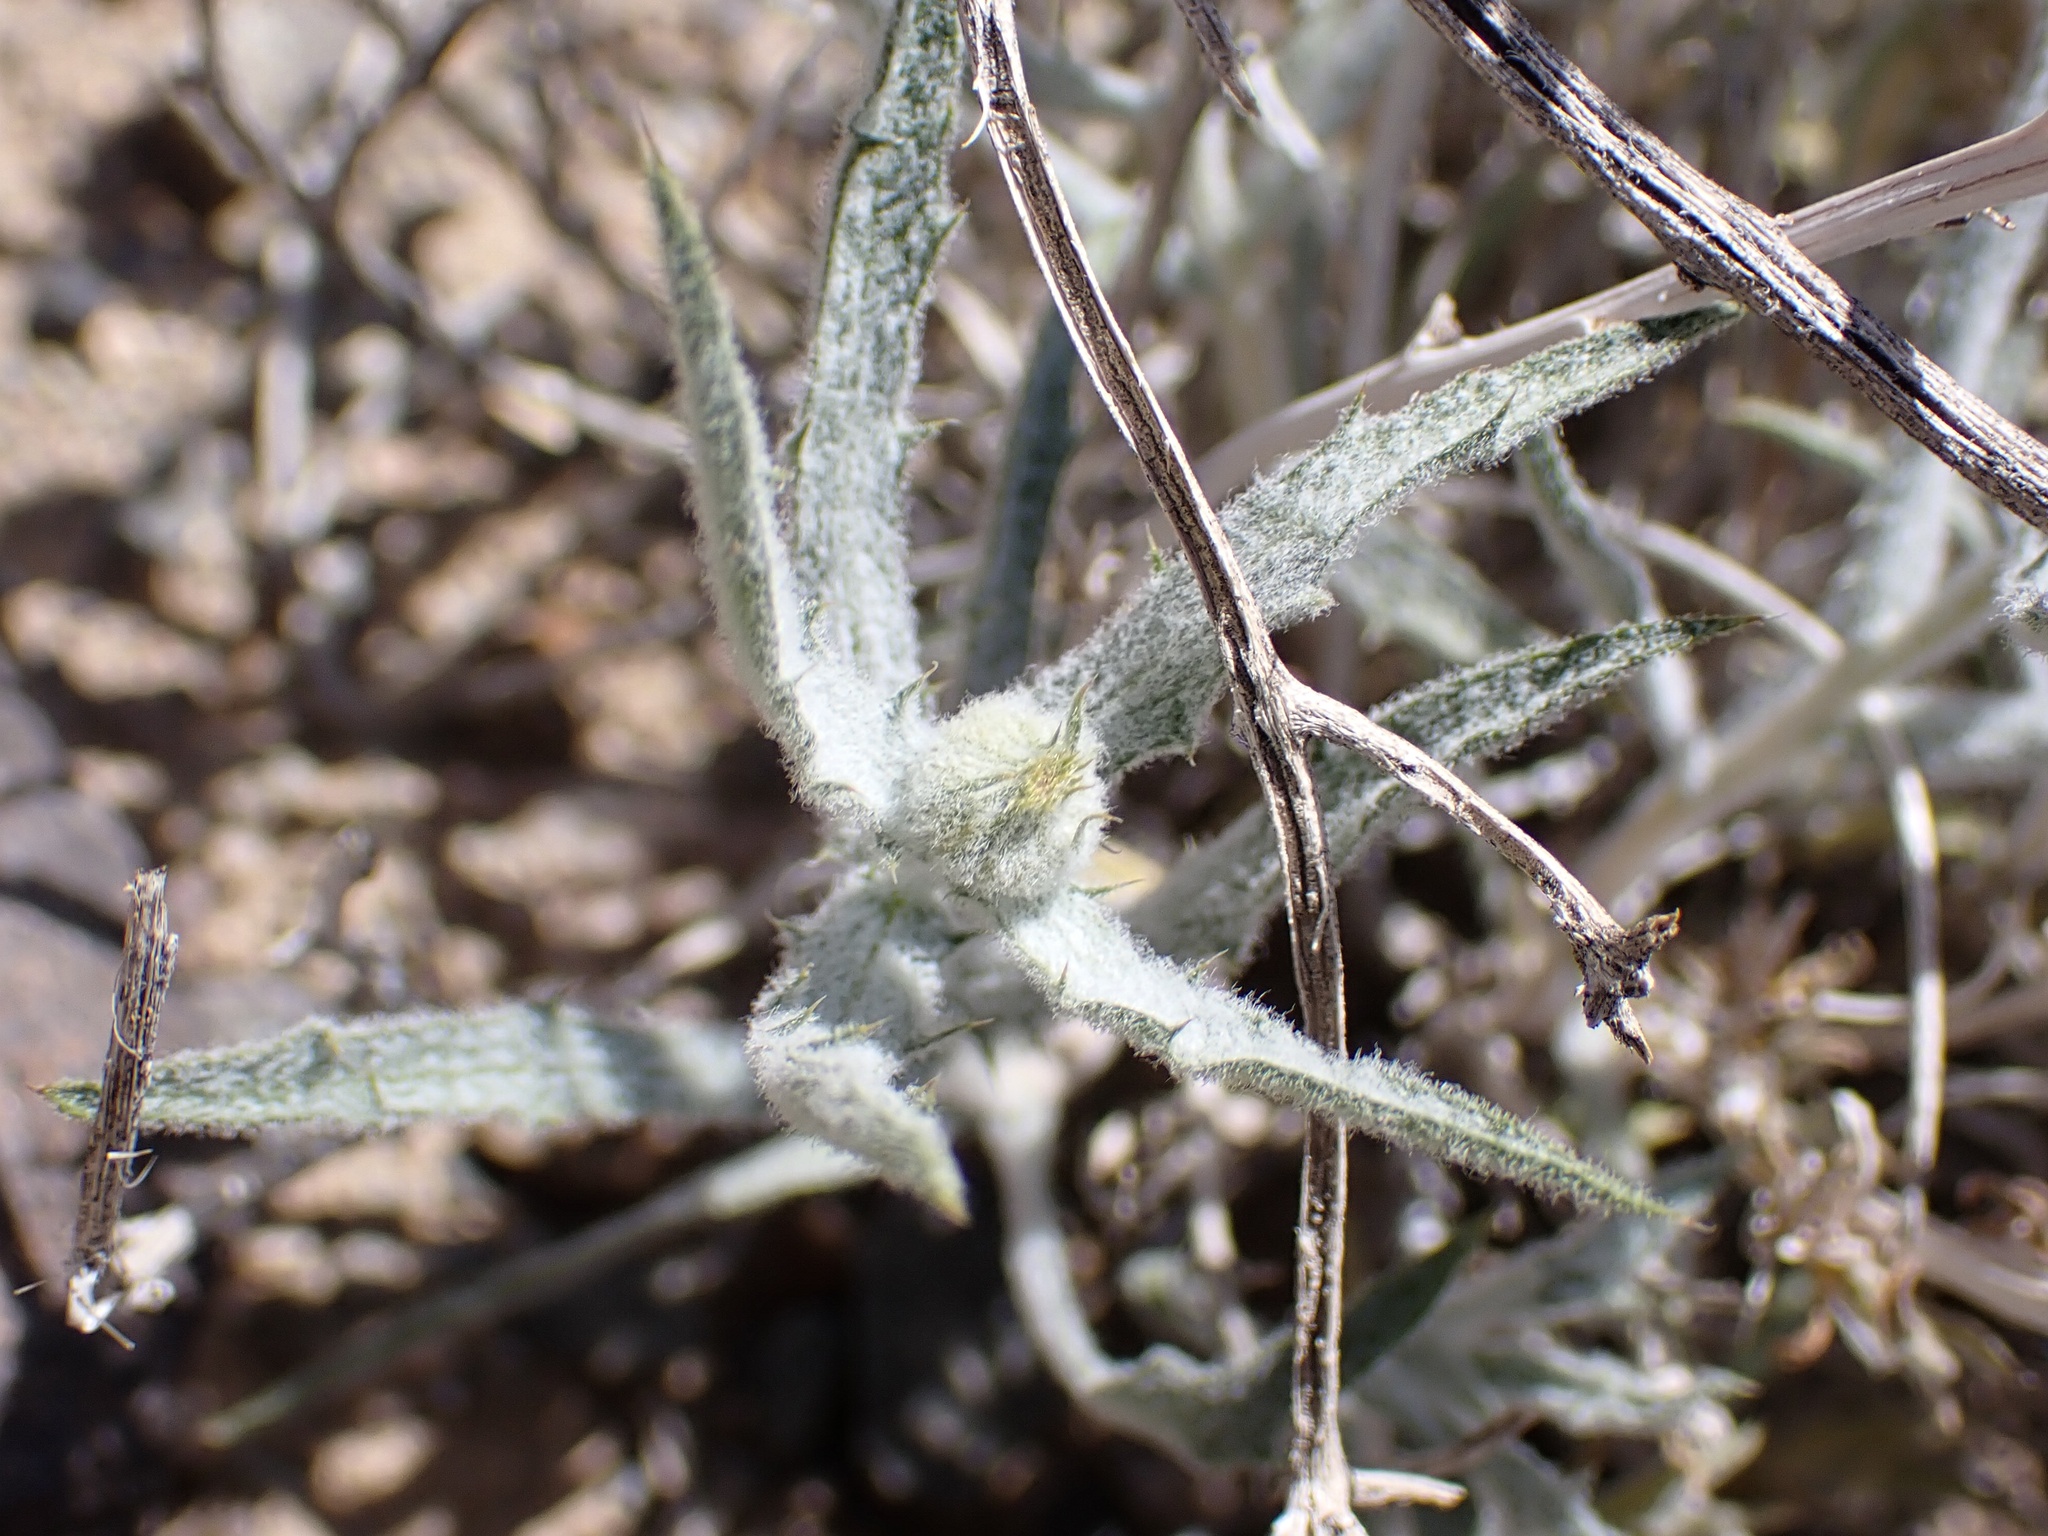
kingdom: Plantae
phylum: Tracheophyta
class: Magnoliopsida
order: Asterales
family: Asteraceae
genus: Xylorhiza
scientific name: Xylorhiza tortifolia
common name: Hurt-leaf woody-aster
